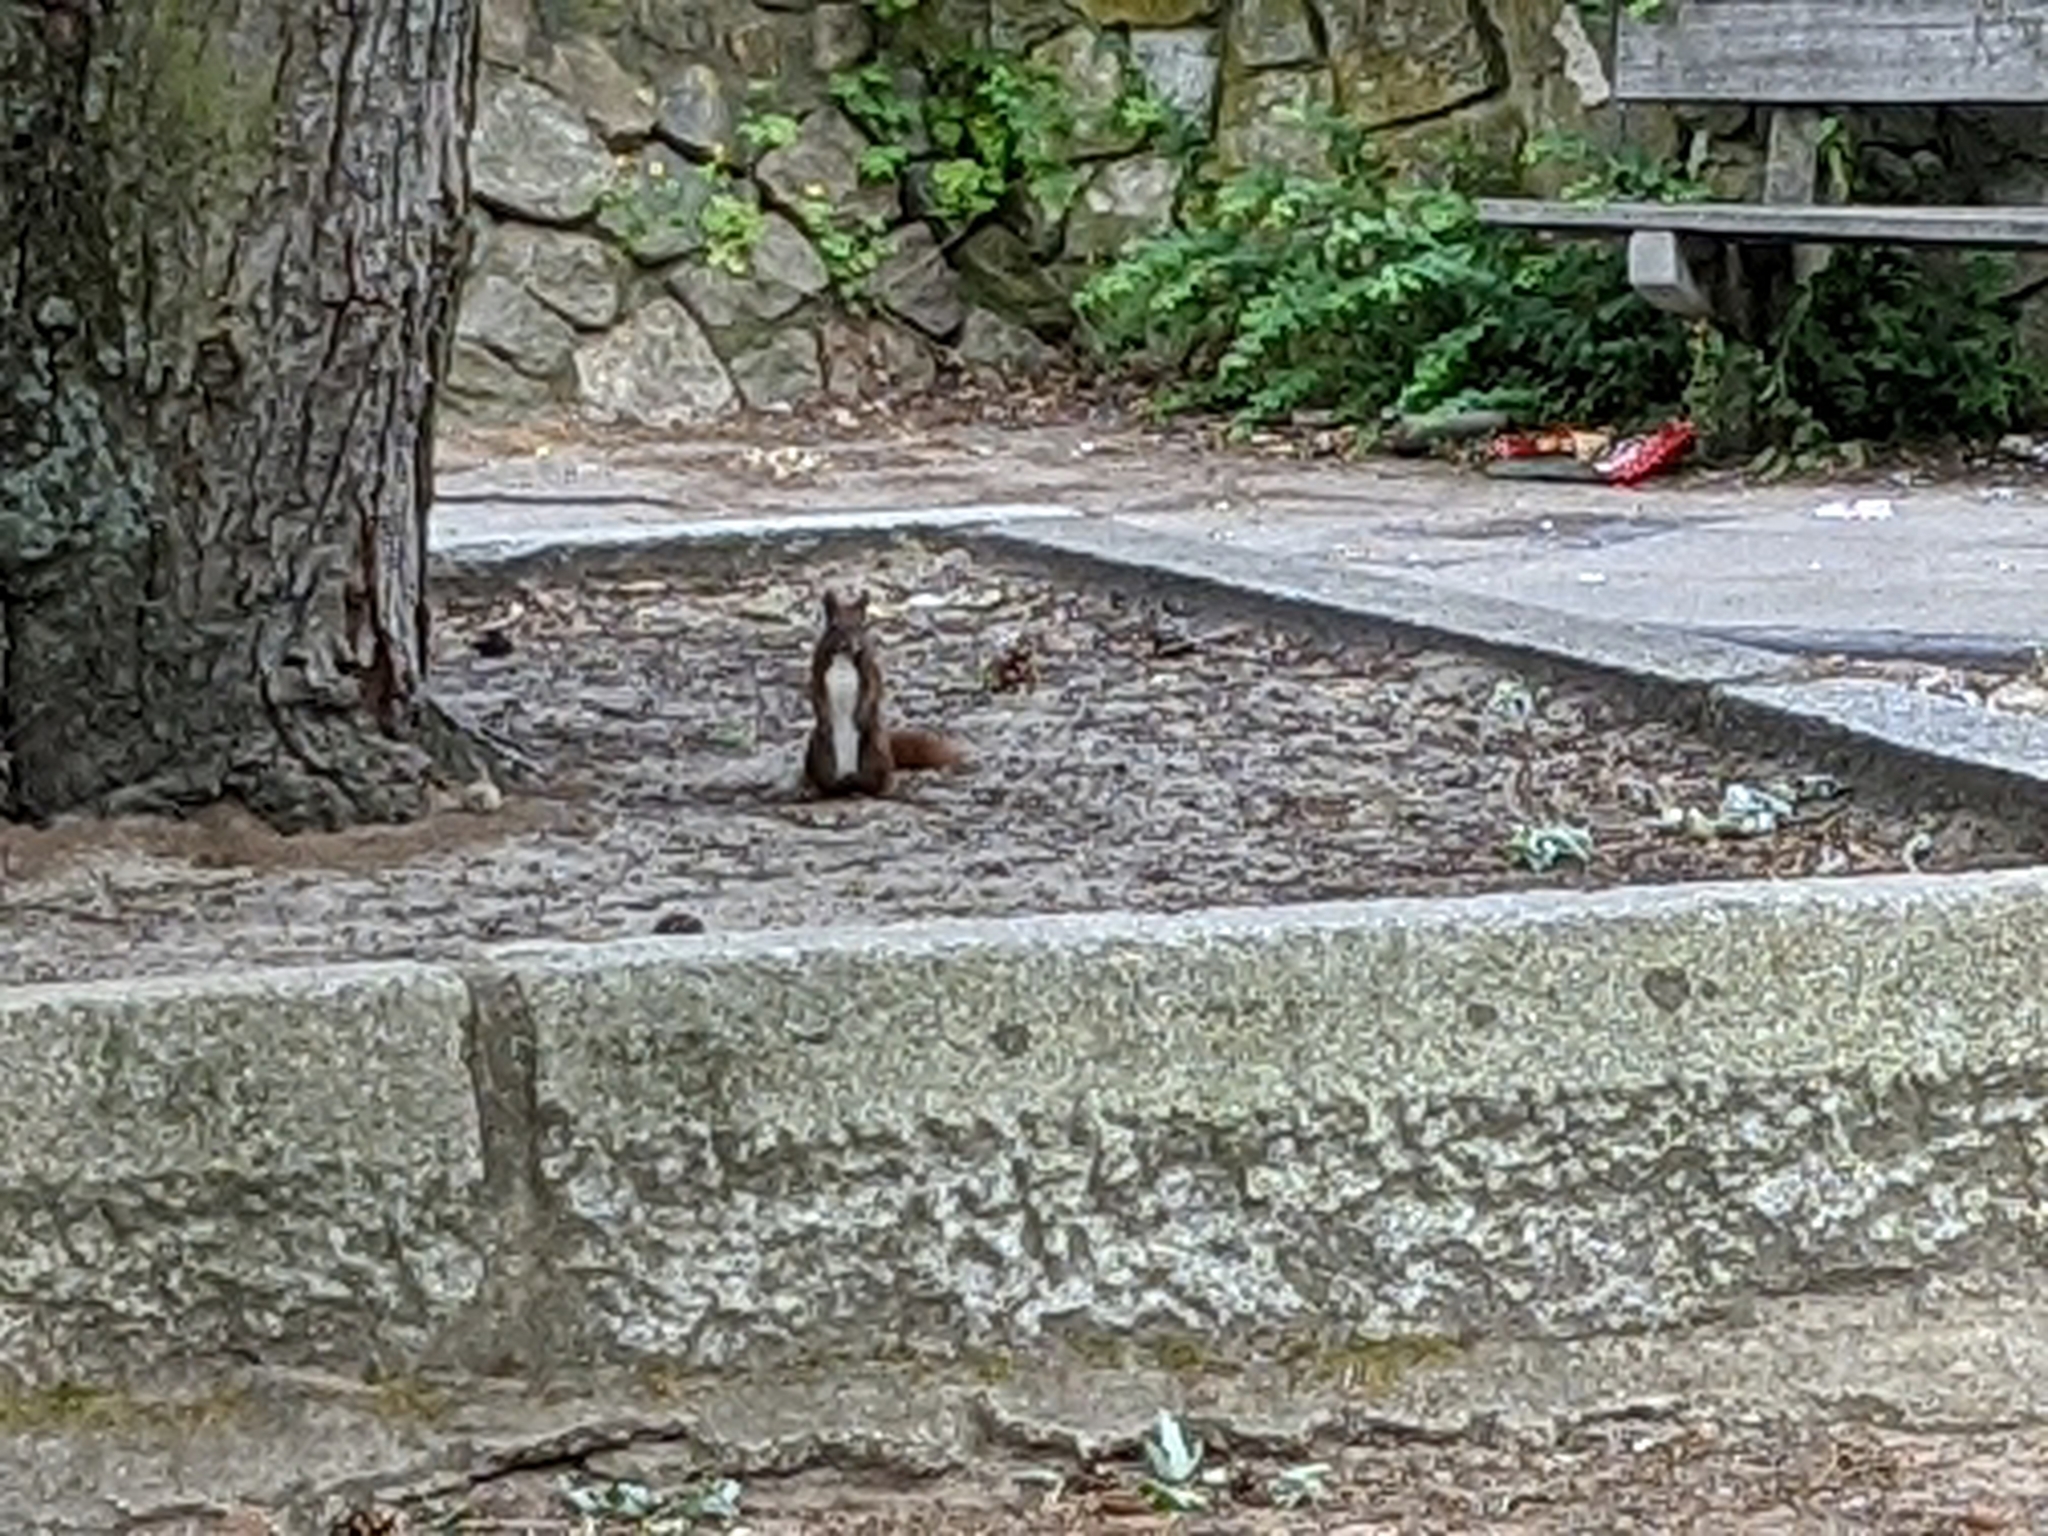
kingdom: Animalia
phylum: Chordata
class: Mammalia
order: Rodentia
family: Sciuridae
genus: Sciurus
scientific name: Sciurus vulgaris
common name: Eurasian red squirrel
